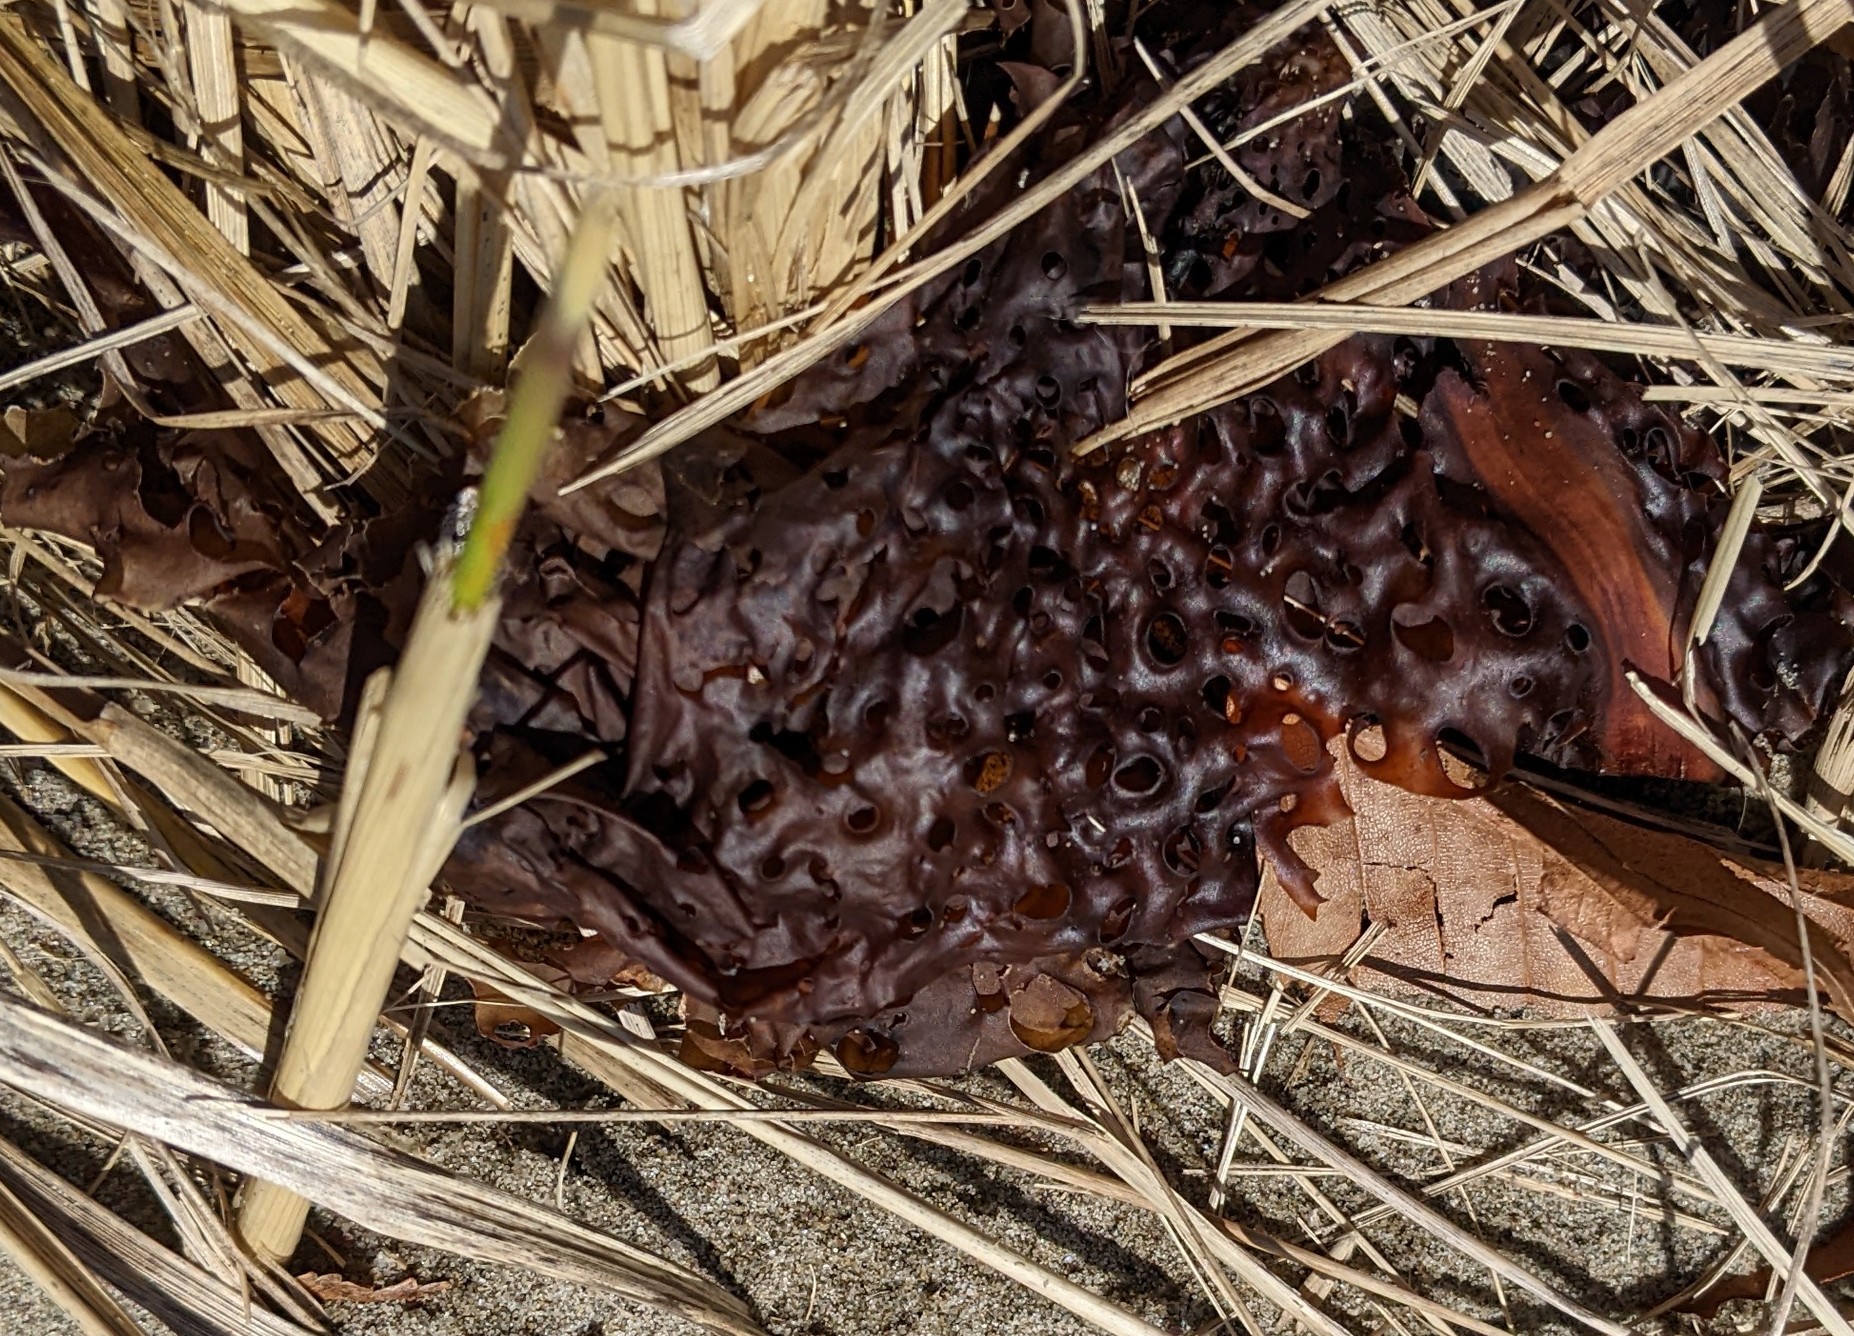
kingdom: Chromista
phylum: Ochrophyta
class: Phaeophyceae
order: Laminariales
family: Costariaceae
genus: Agarum
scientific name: Agarum clathratum
